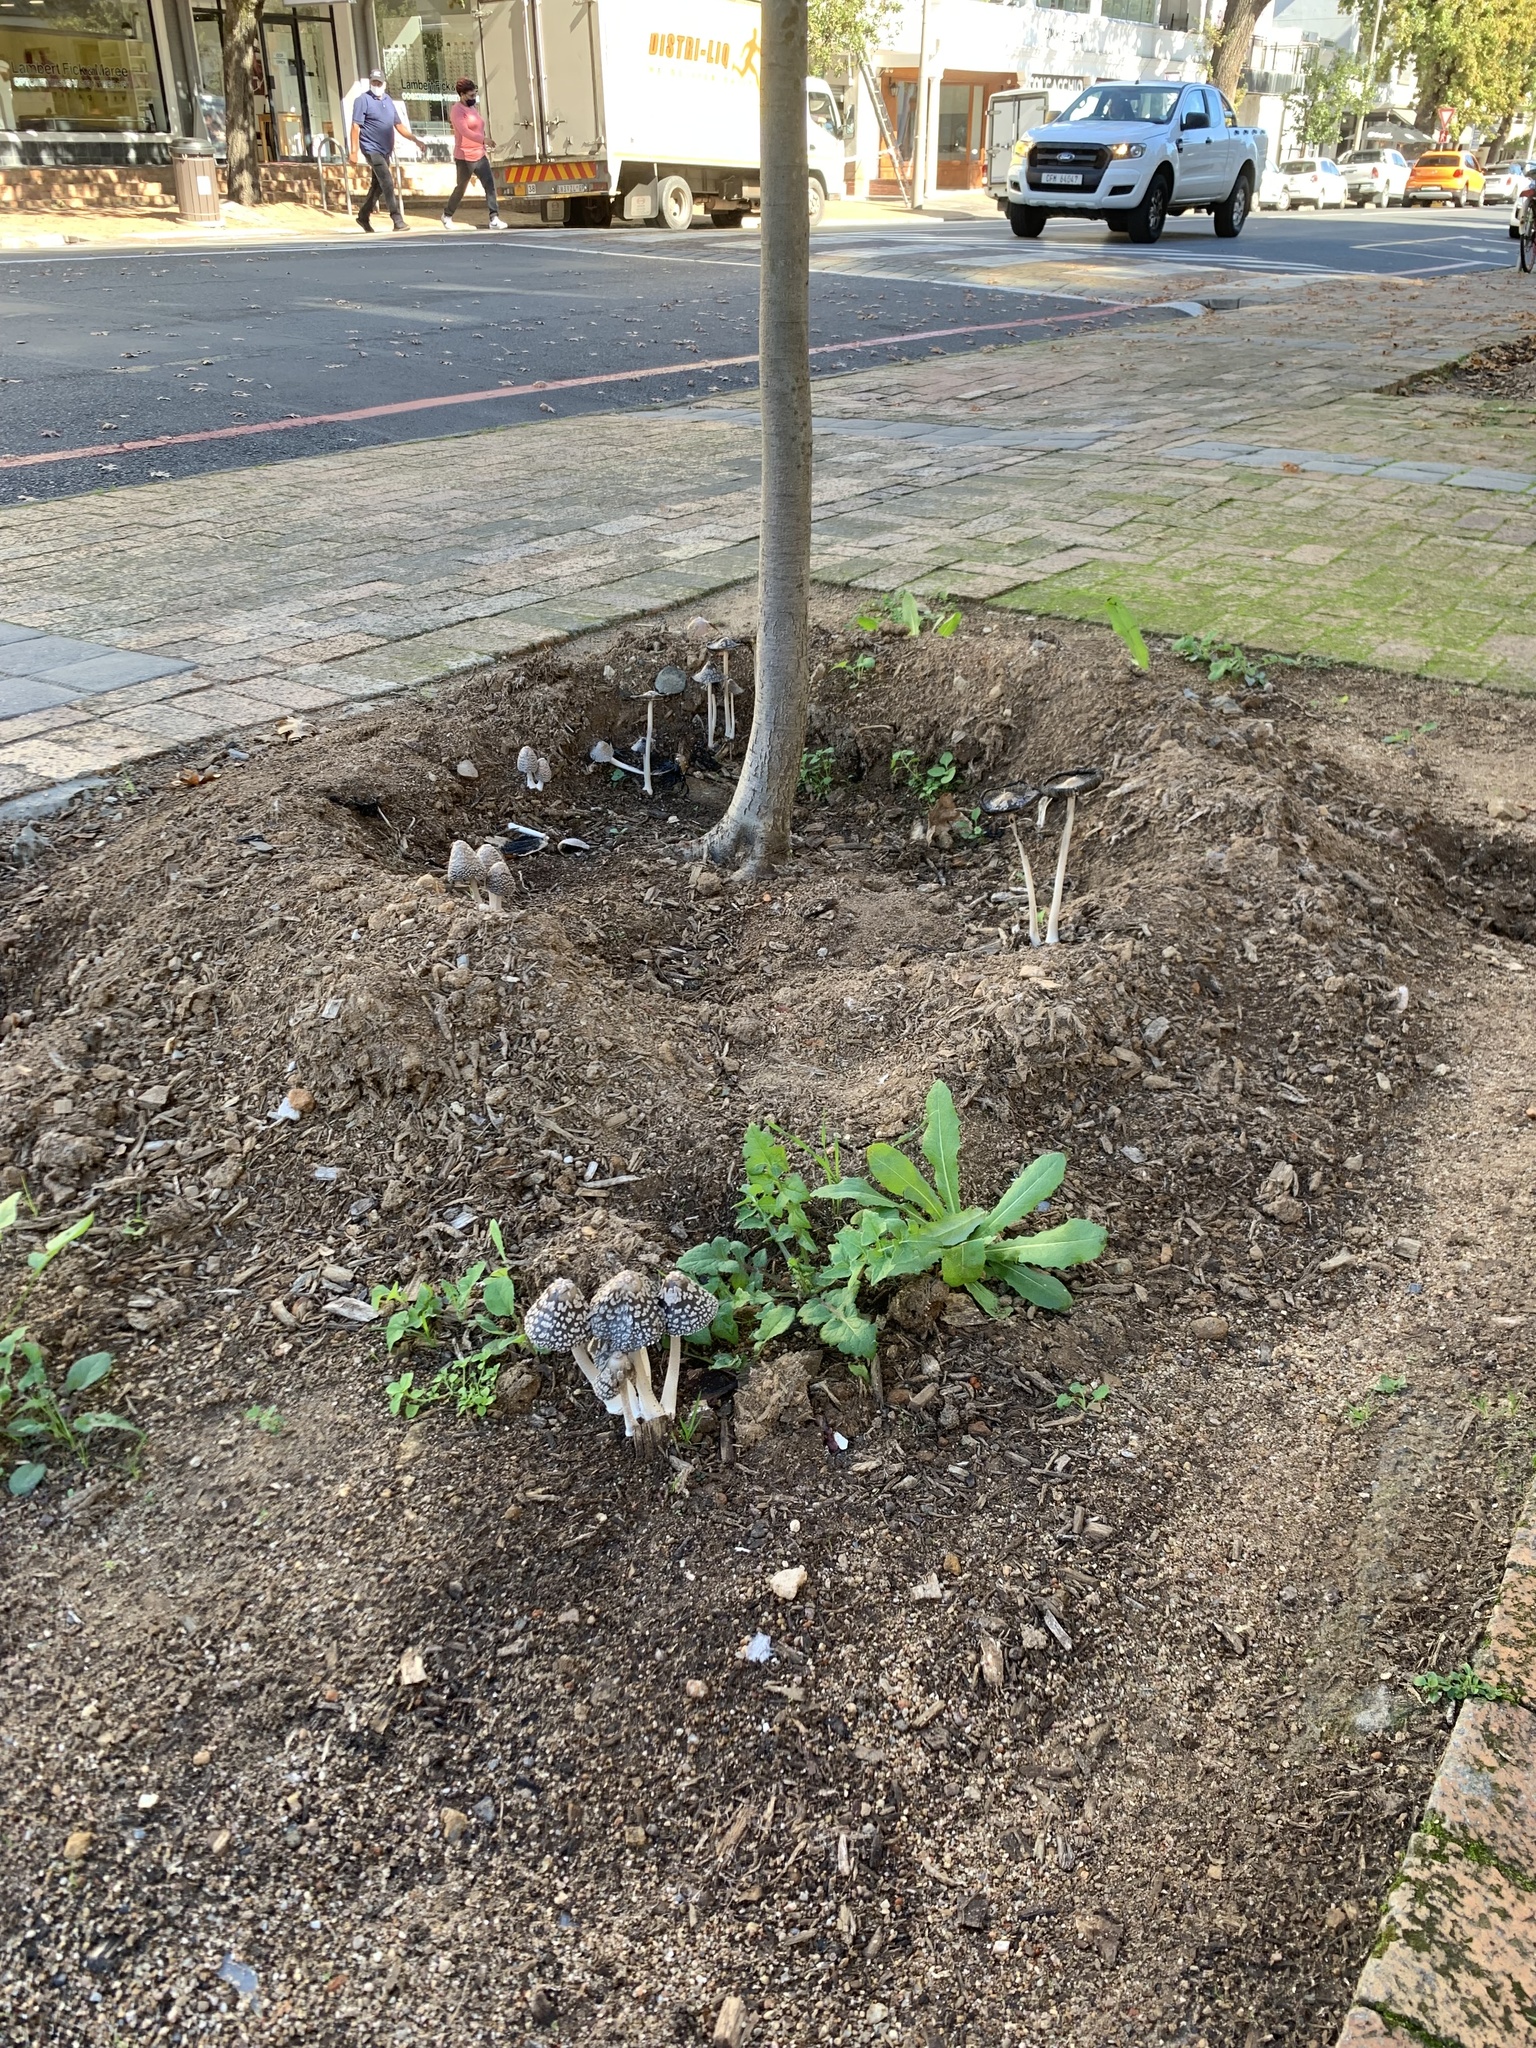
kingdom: Fungi
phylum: Basidiomycota
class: Agaricomycetes
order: Agaricales
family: Psathyrellaceae
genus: Coprinopsis
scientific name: Coprinopsis picacea
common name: Magpie inkcap
